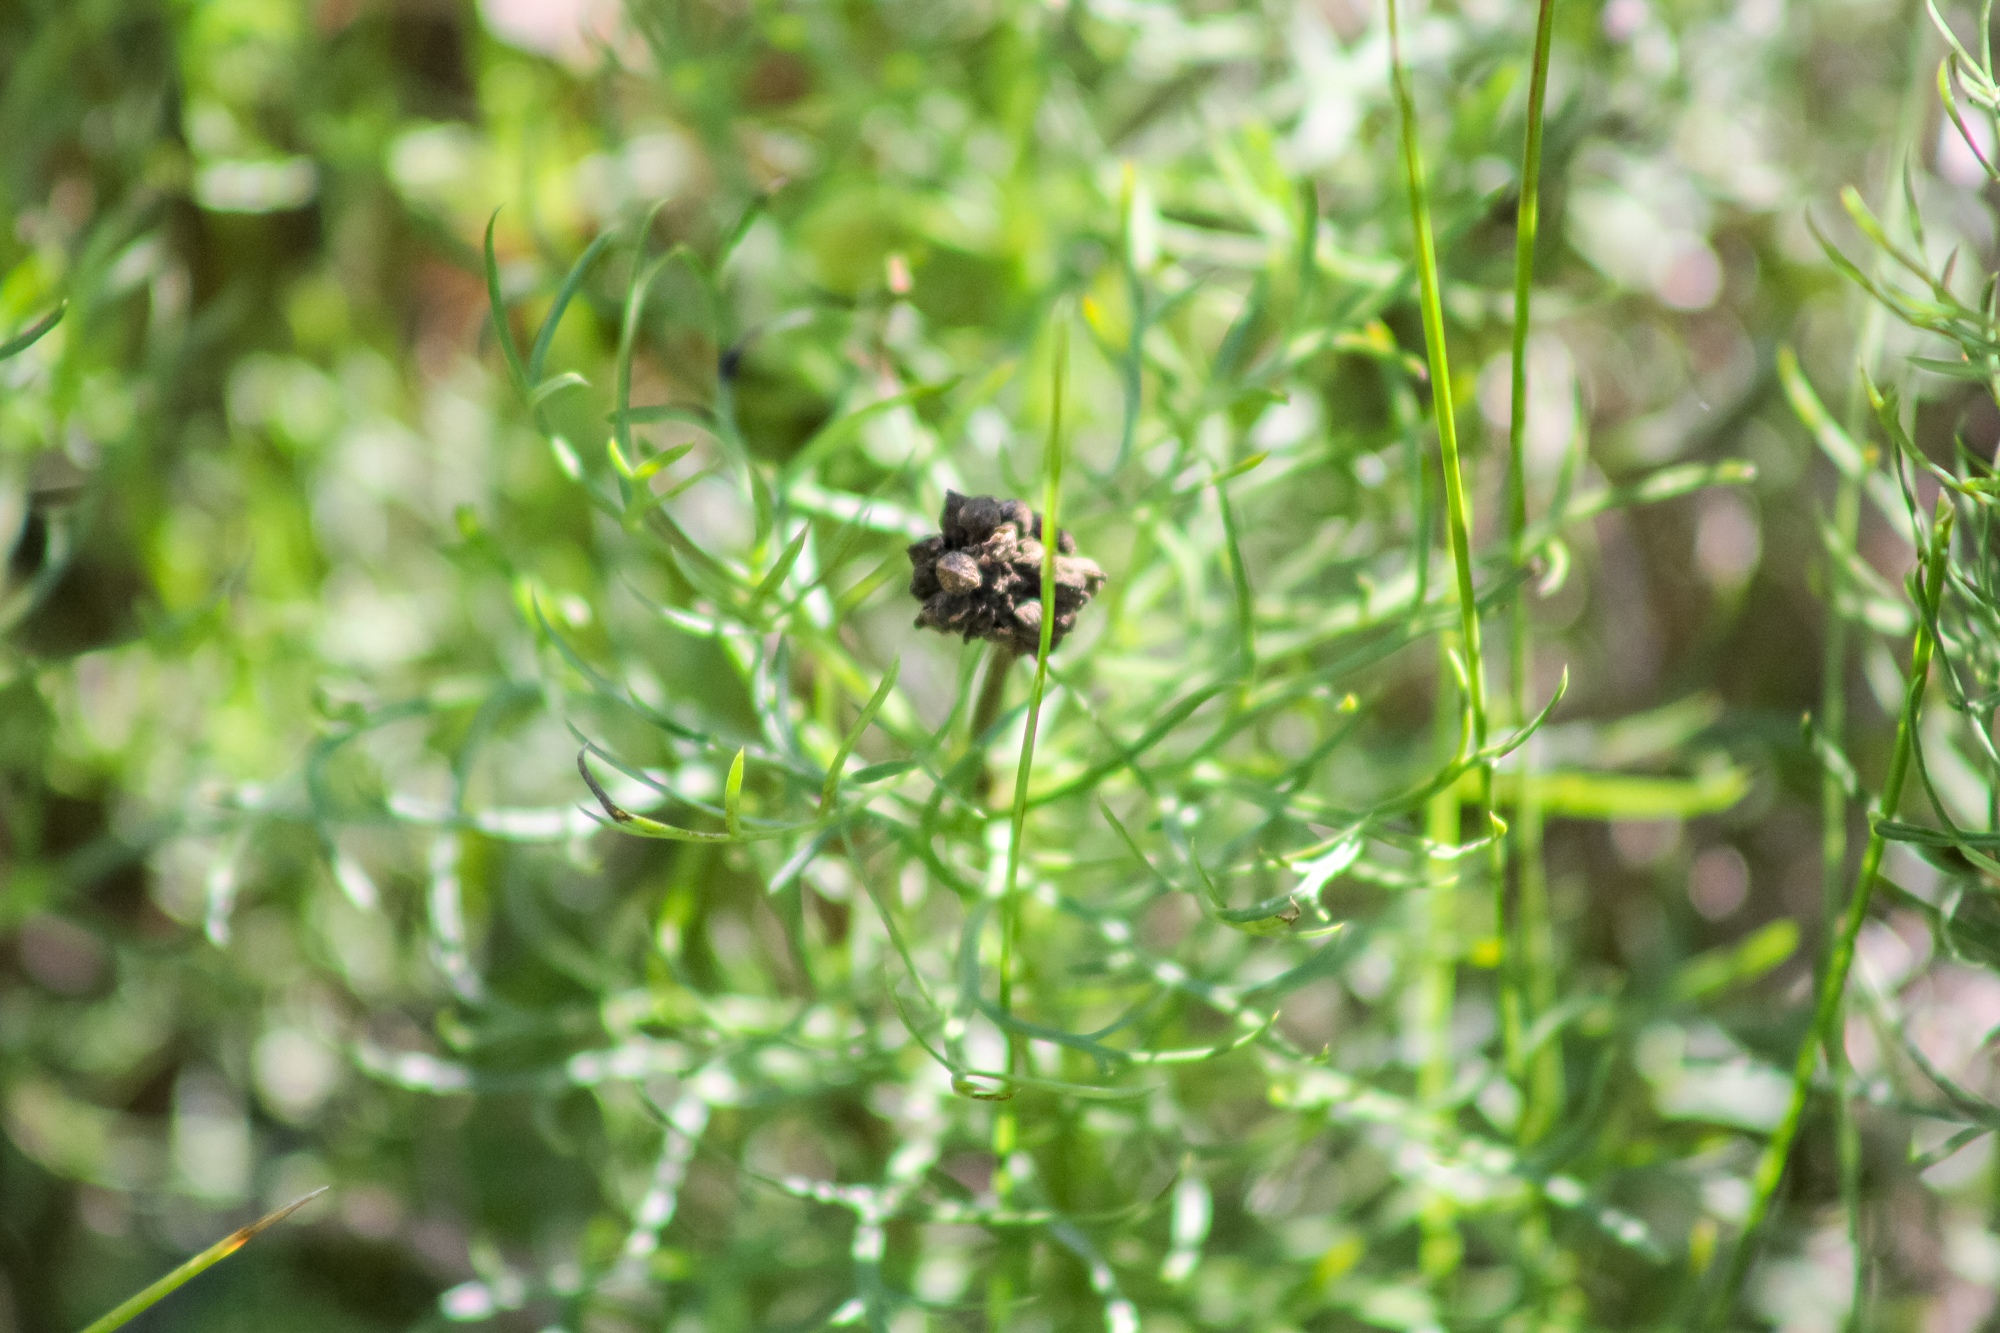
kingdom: Plantae
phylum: Tracheophyta
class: Magnoliopsida
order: Ranunculales
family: Ranunculaceae
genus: Adonis
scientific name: Adonis vernalis
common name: Yellow pheasants-eye
